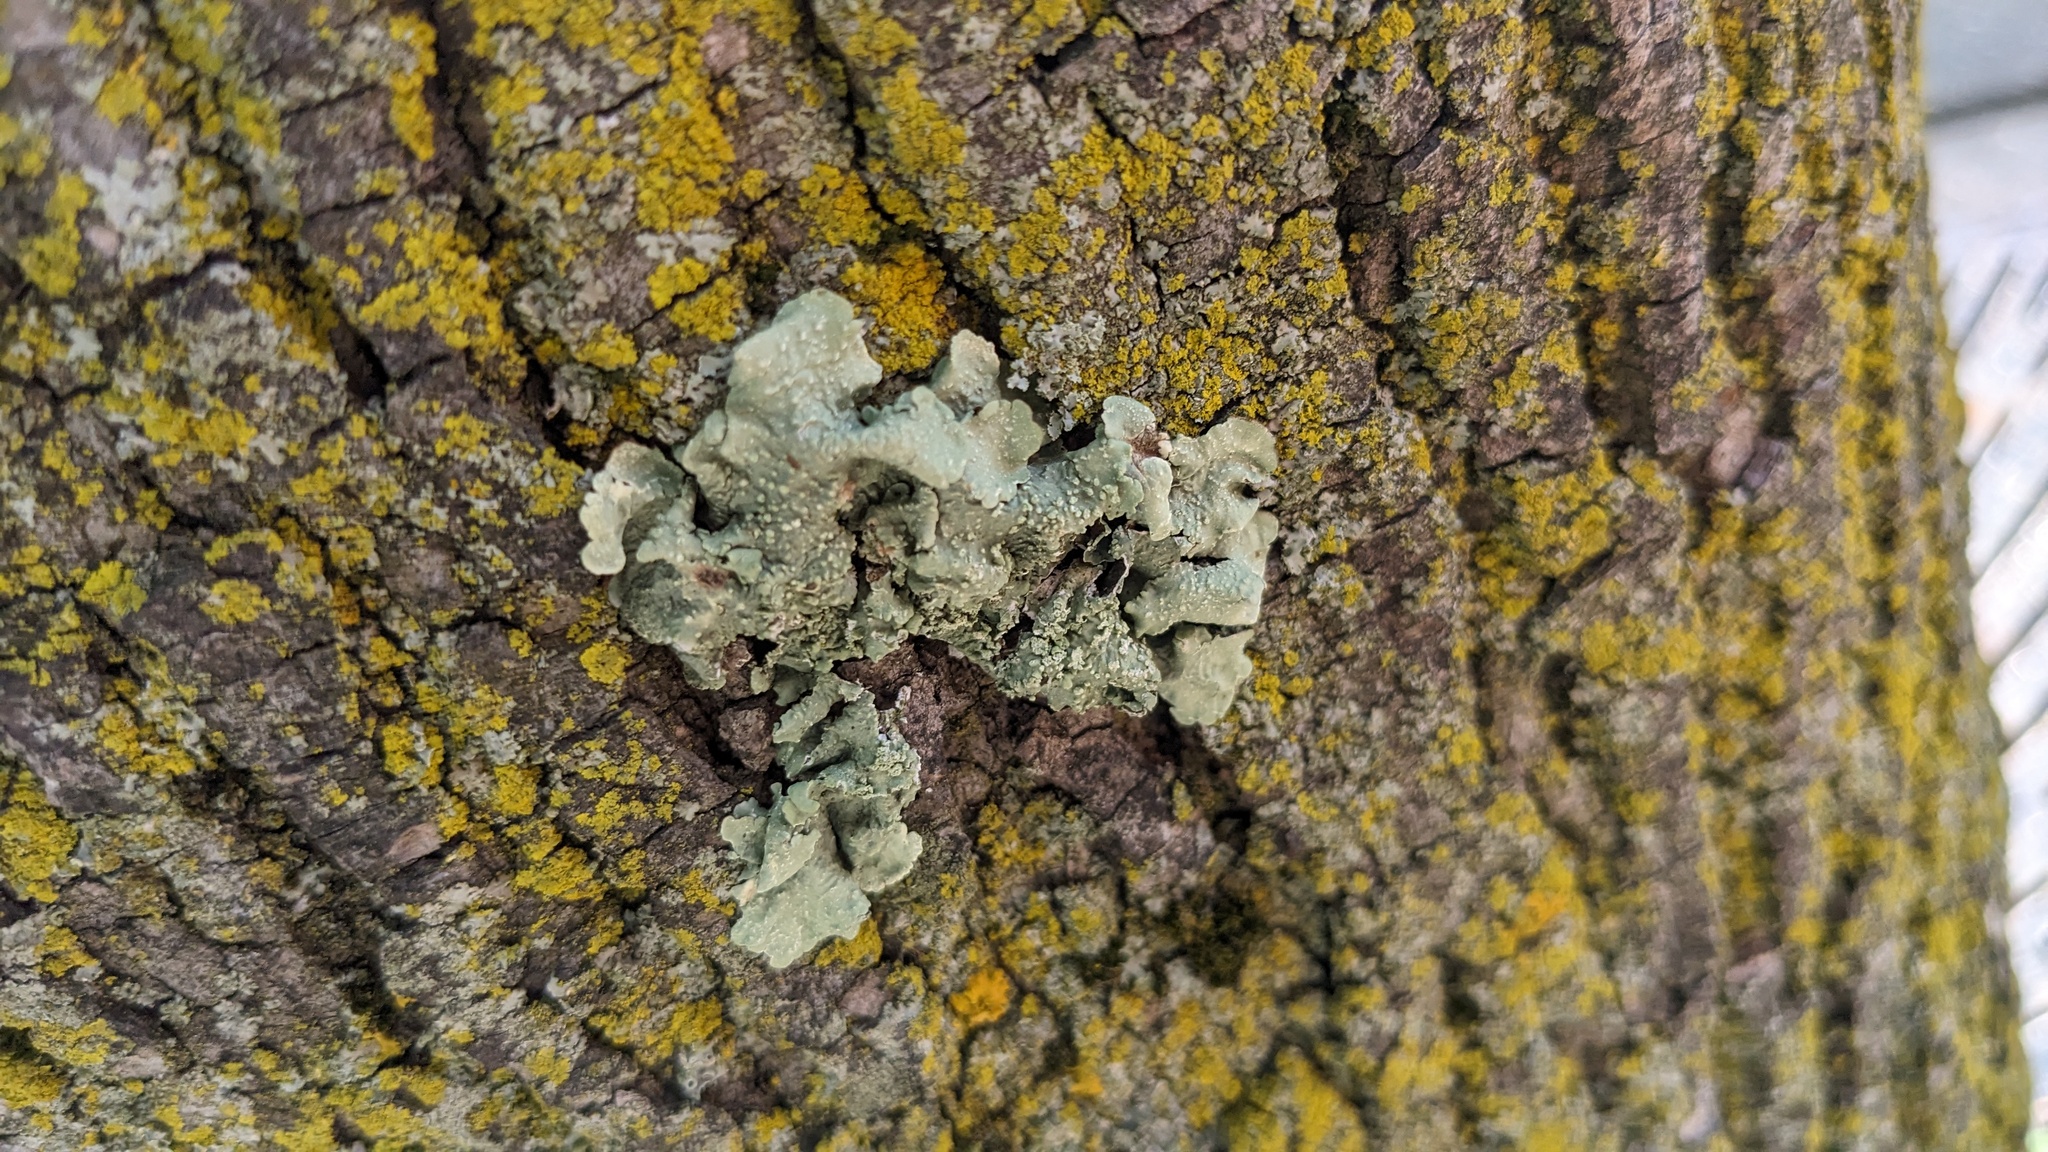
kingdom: Fungi
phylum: Ascomycota
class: Lecanoromycetes
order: Lecanorales
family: Parmeliaceae
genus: Flavoparmelia
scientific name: Flavoparmelia caperata
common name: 40-mile per hour lichen
